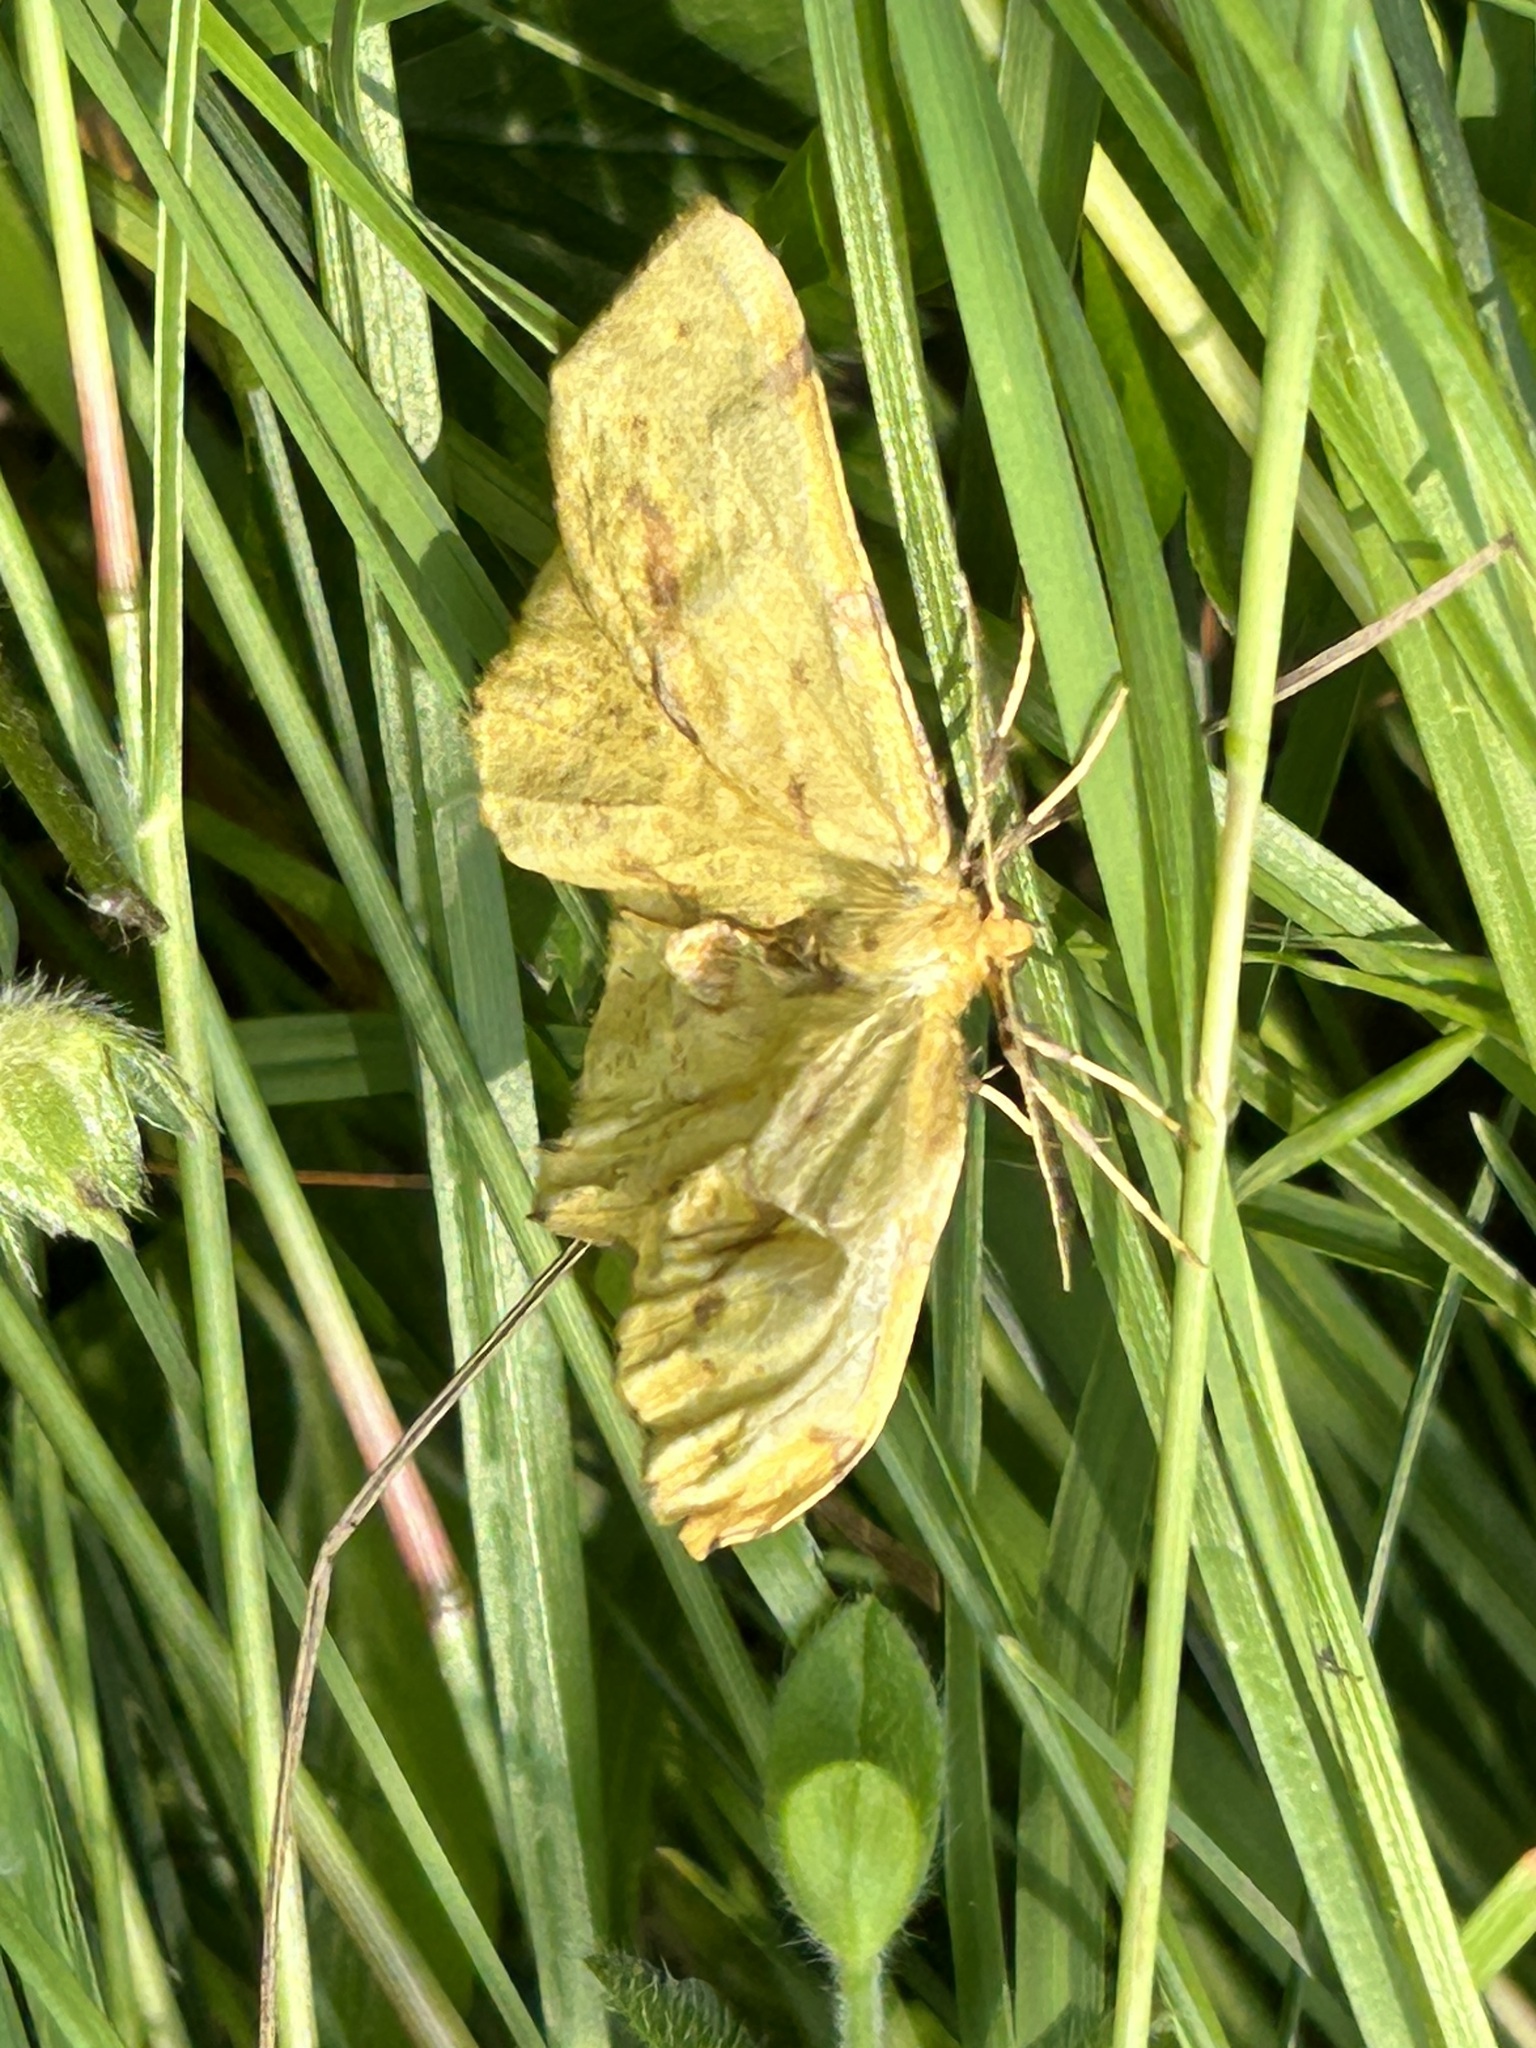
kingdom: Animalia
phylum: Arthropoda
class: Insecta
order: Lepidoptera
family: Geometridae
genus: Xanthotype
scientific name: Xanthotype
